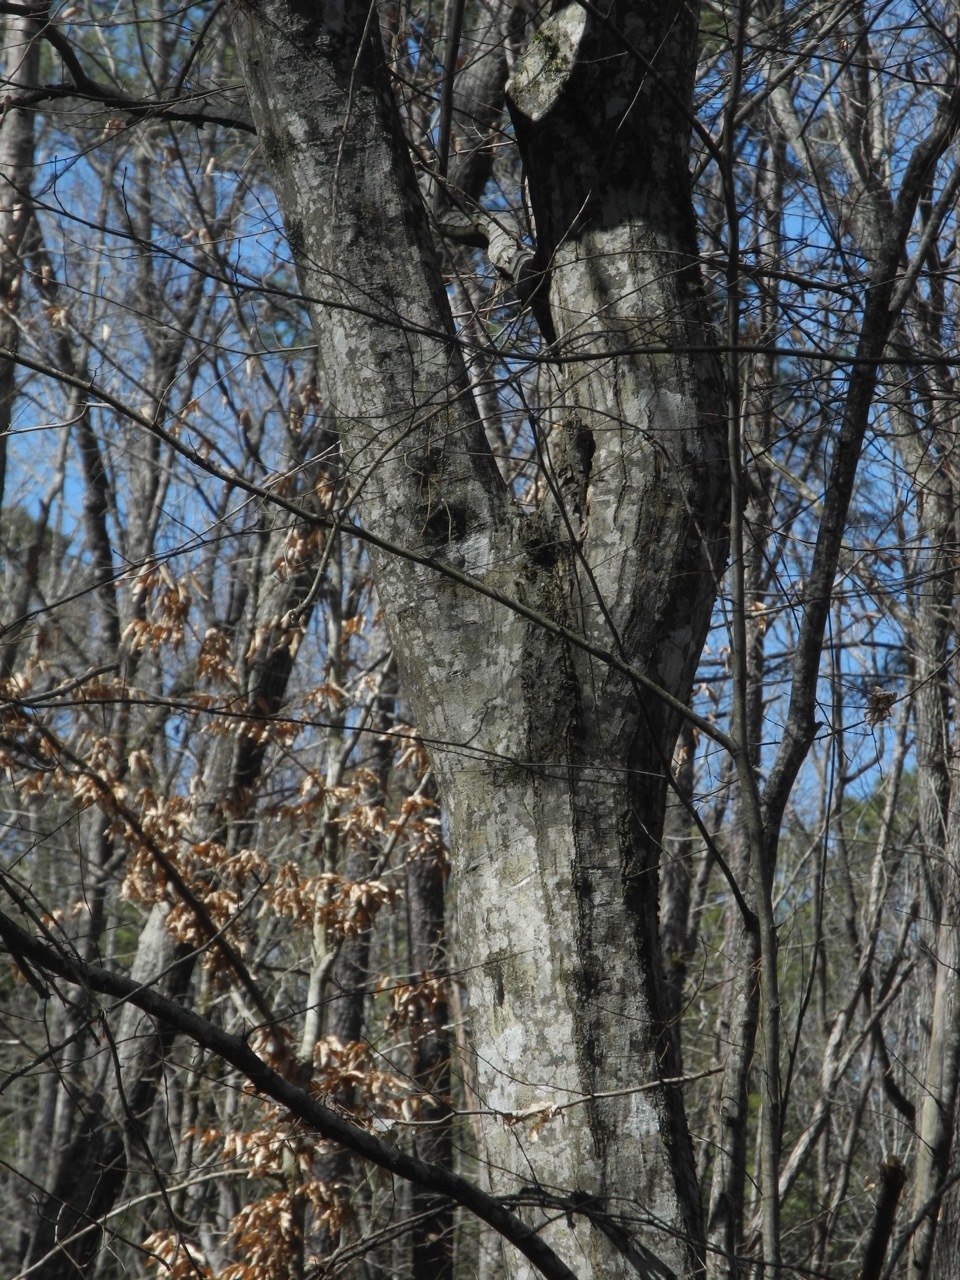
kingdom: Plantae
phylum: Tracheophyta
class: Magnoliopsida
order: Fagales
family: Betulaceae
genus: Carpinus
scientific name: Carpinus caroliniana
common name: American hornbeam
